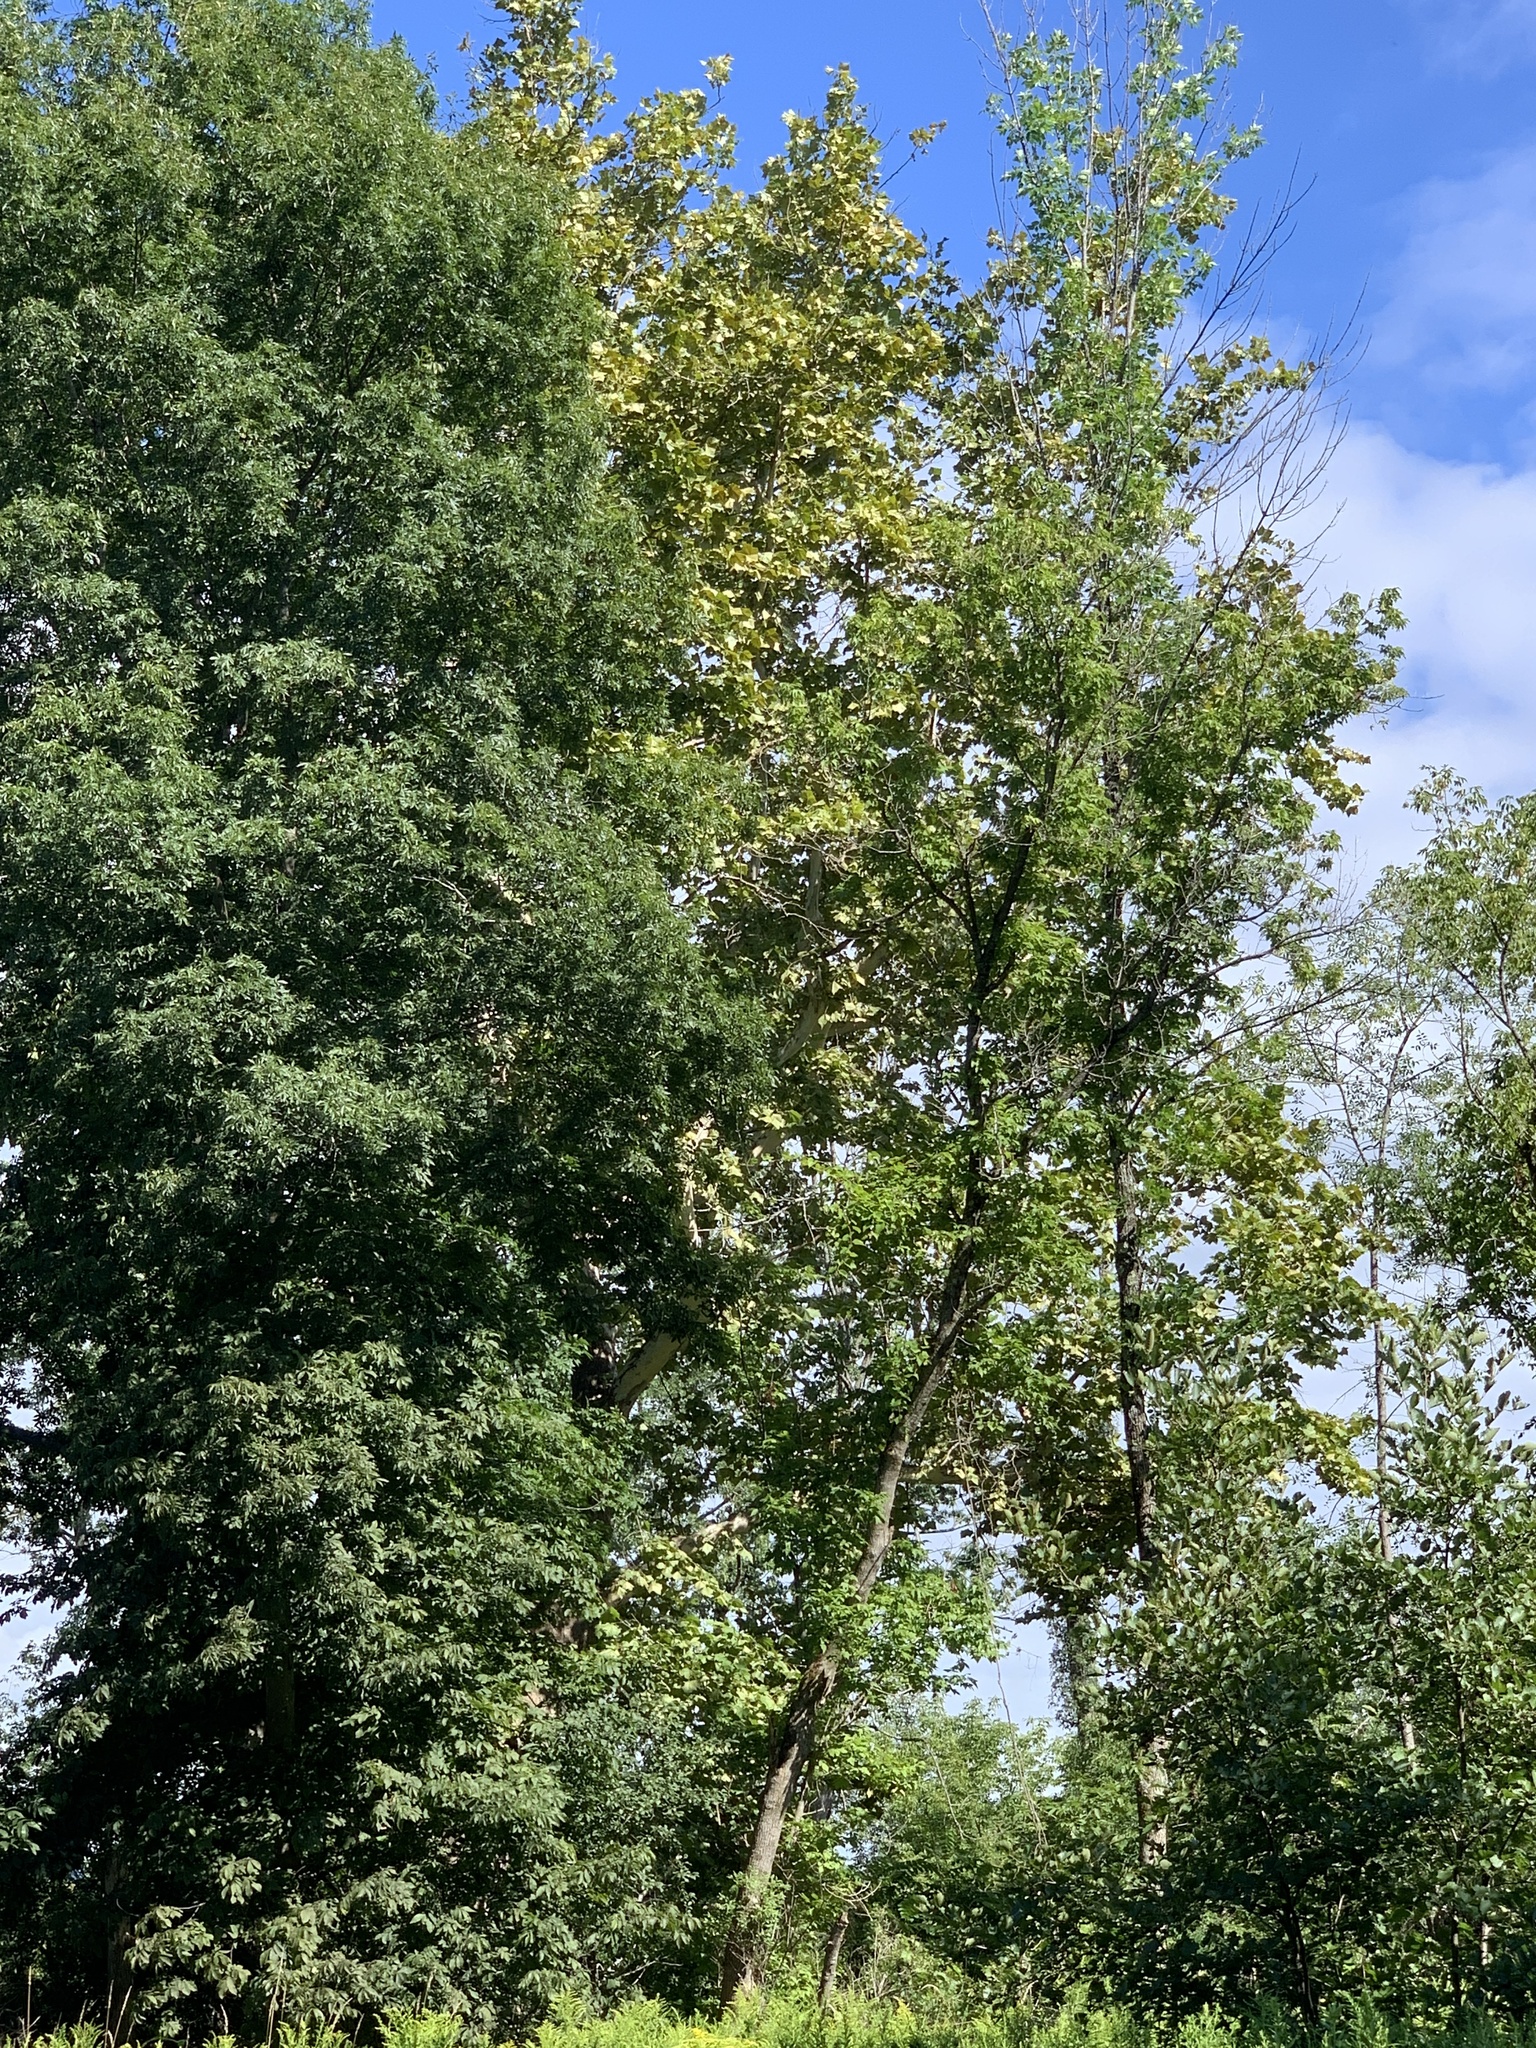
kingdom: Plantae
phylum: Tracheophyta
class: Magnoliopsida
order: Proteales
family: Platanaceae
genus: Platanus
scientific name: Platanus occidentalis
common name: American sycamore
